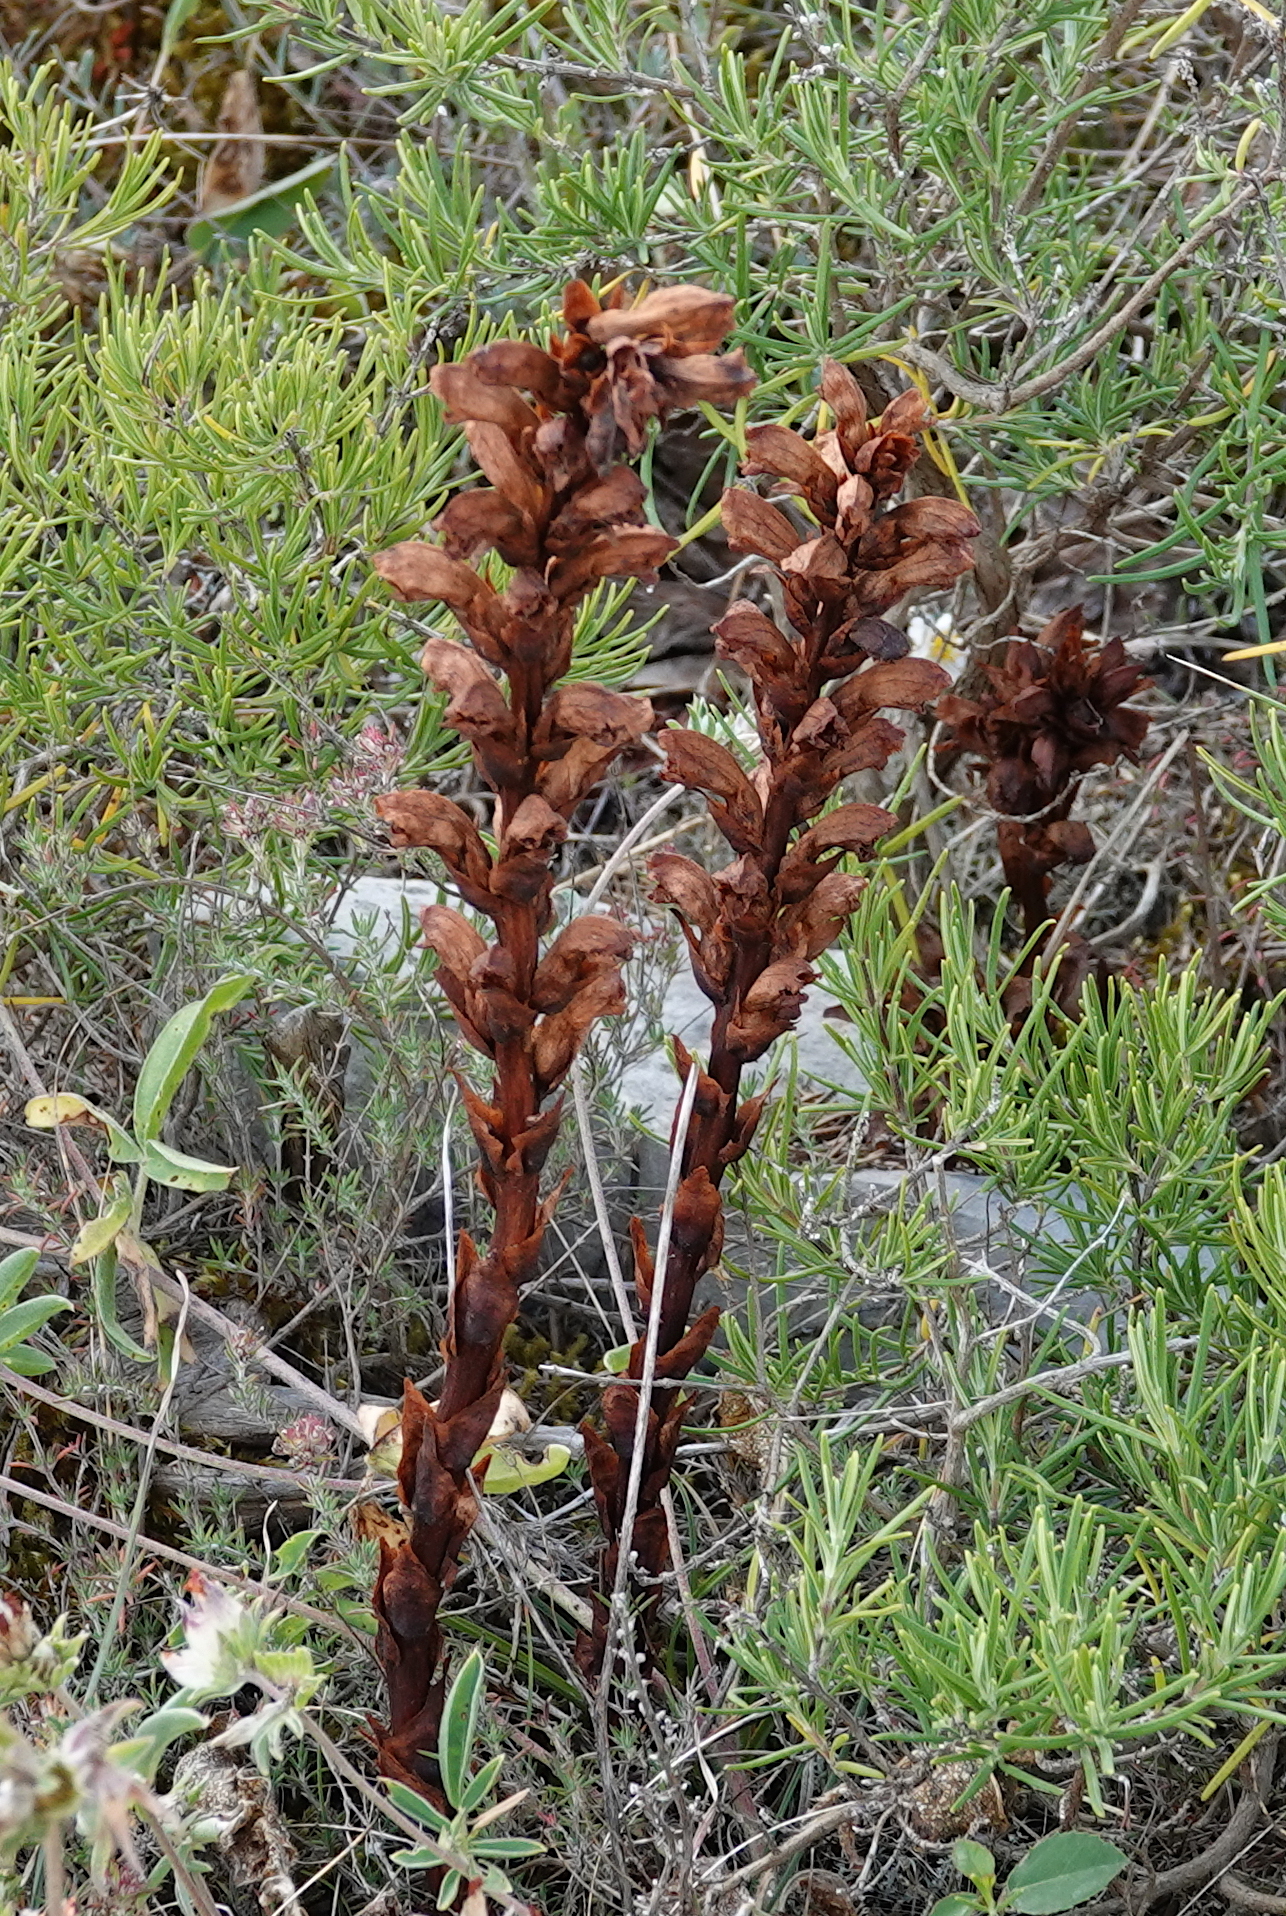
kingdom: Plantae
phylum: Tracheophyta
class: Magnoliopsida
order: Lamiales
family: Orobanchaceae
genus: Boulardia
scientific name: Boulardia latisquama
